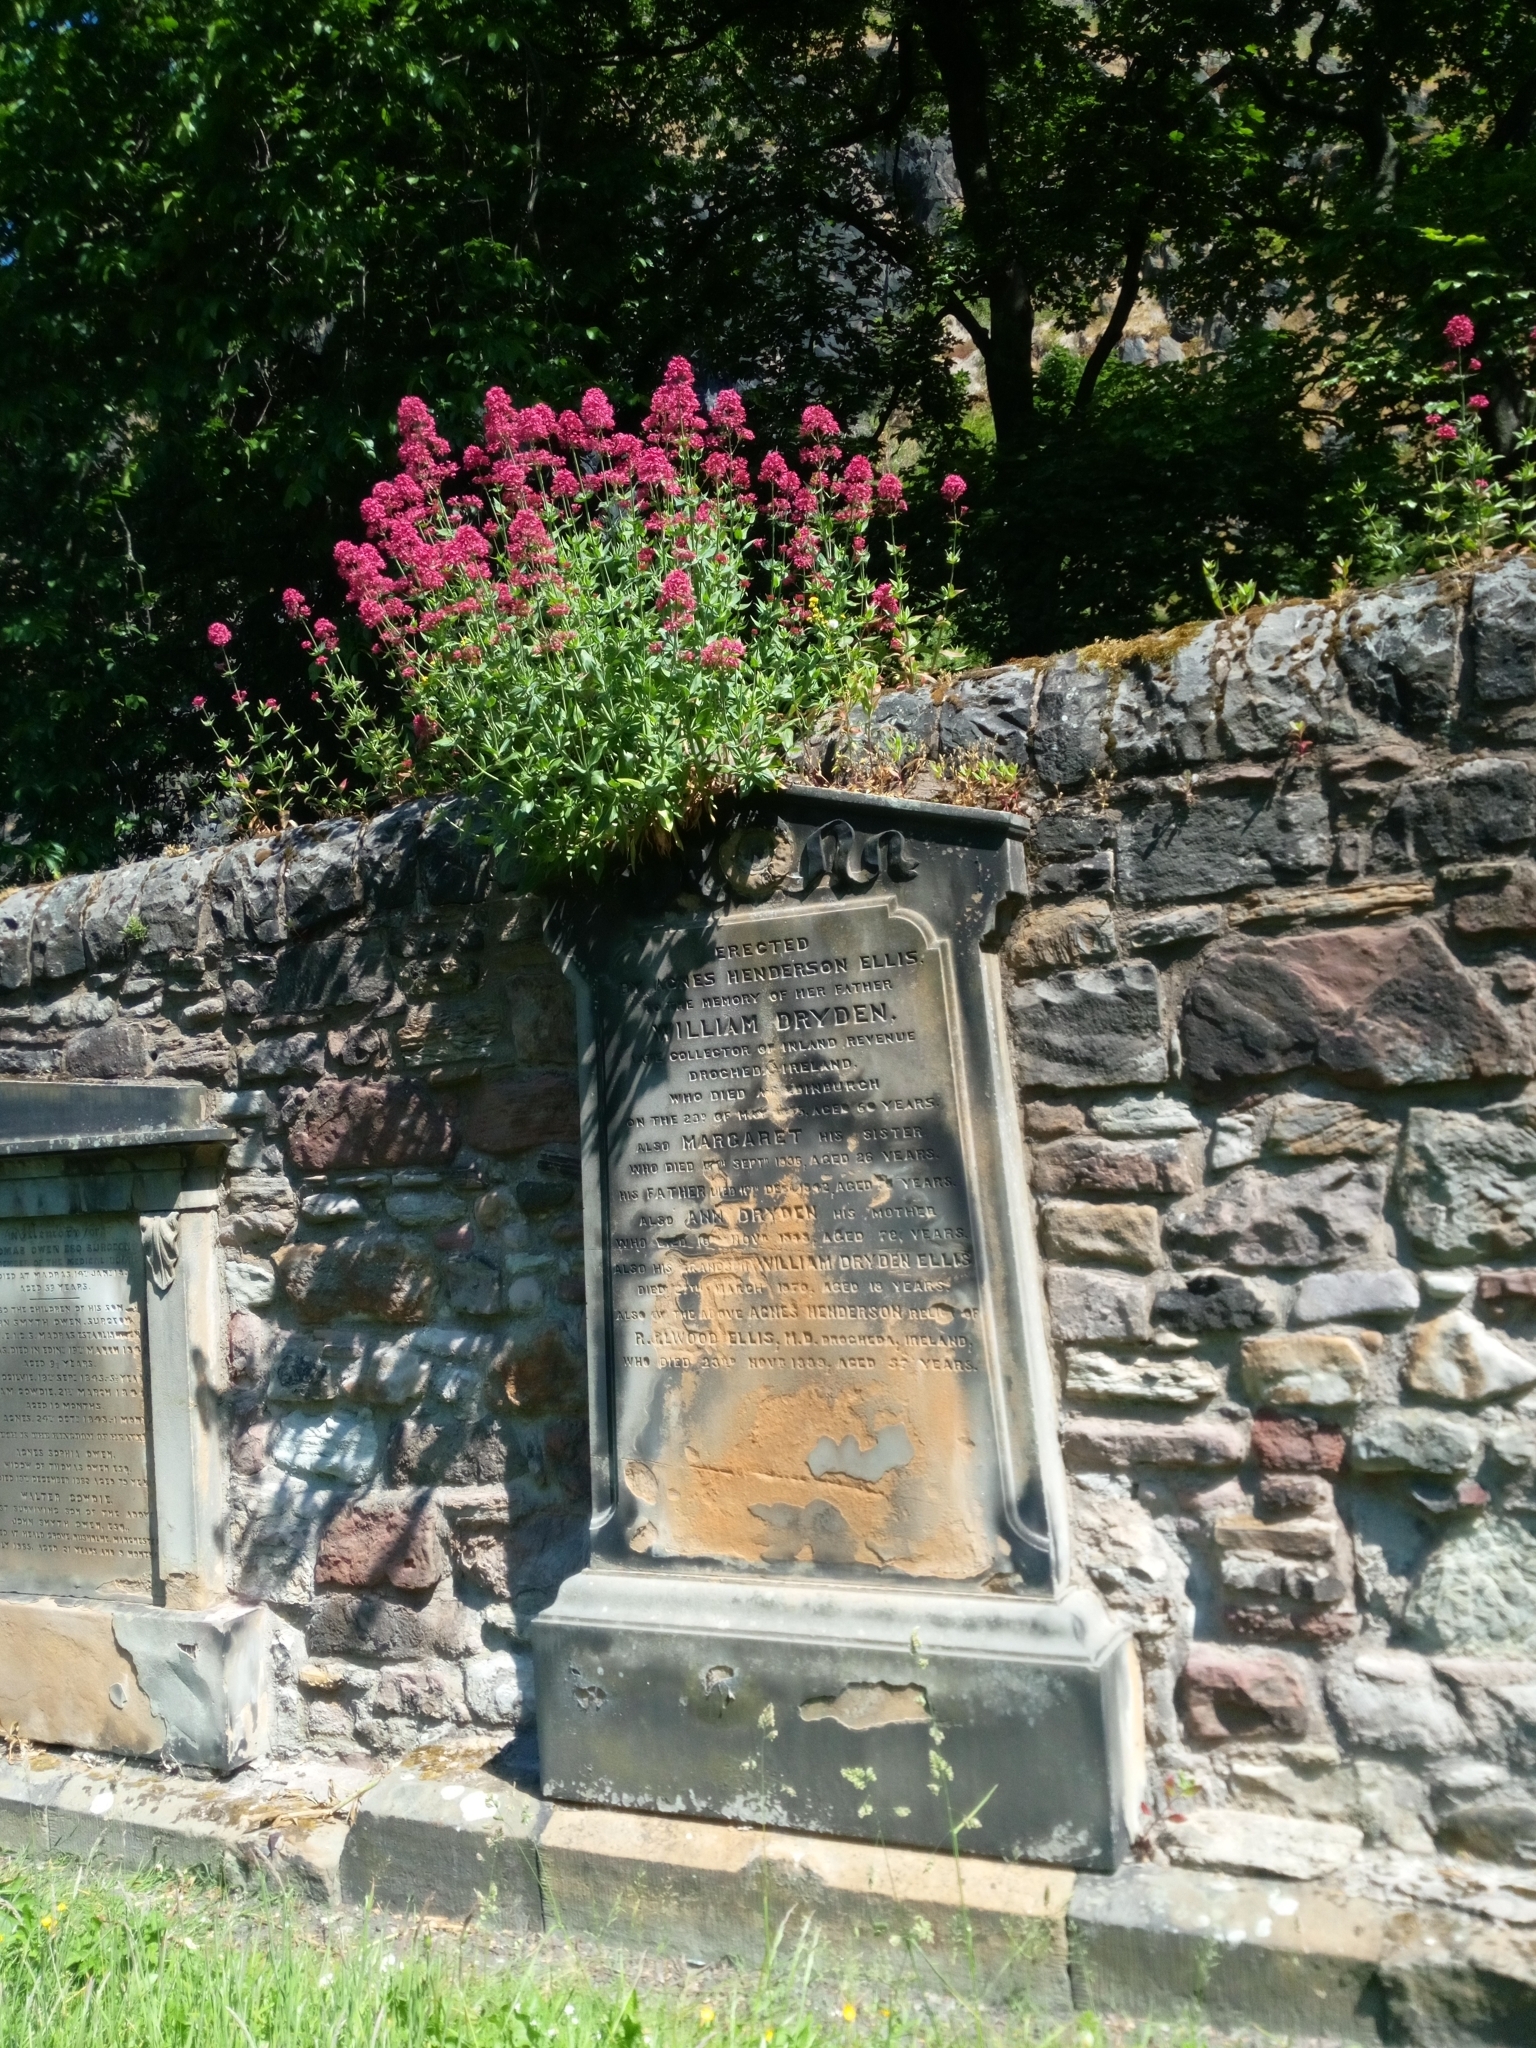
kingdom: Plantae
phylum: Tracheophyta
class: Magnoliopsida
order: Dipsacales
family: Caprifoliaceae
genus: Centranthus
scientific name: Centranthus ruber
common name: Red valerian
